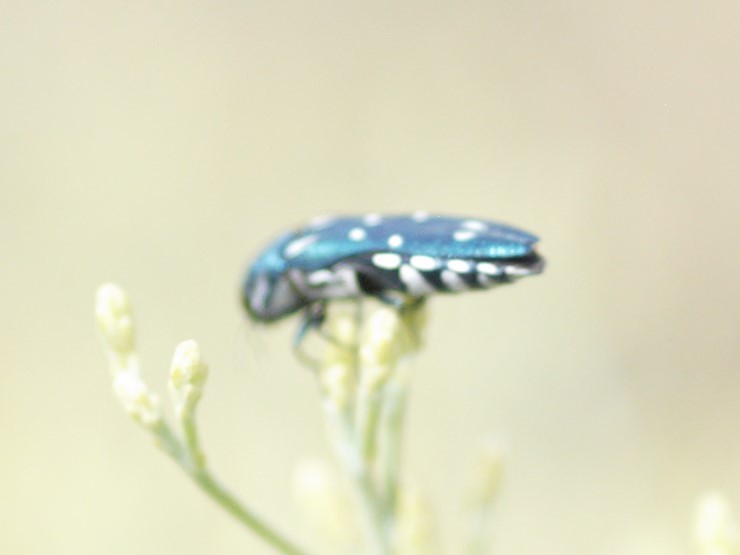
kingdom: Animalia
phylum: Arthropoda
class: Insecta
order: Coleoptera
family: Buprestidae
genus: Agrilus
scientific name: Agrilus walsinghami
